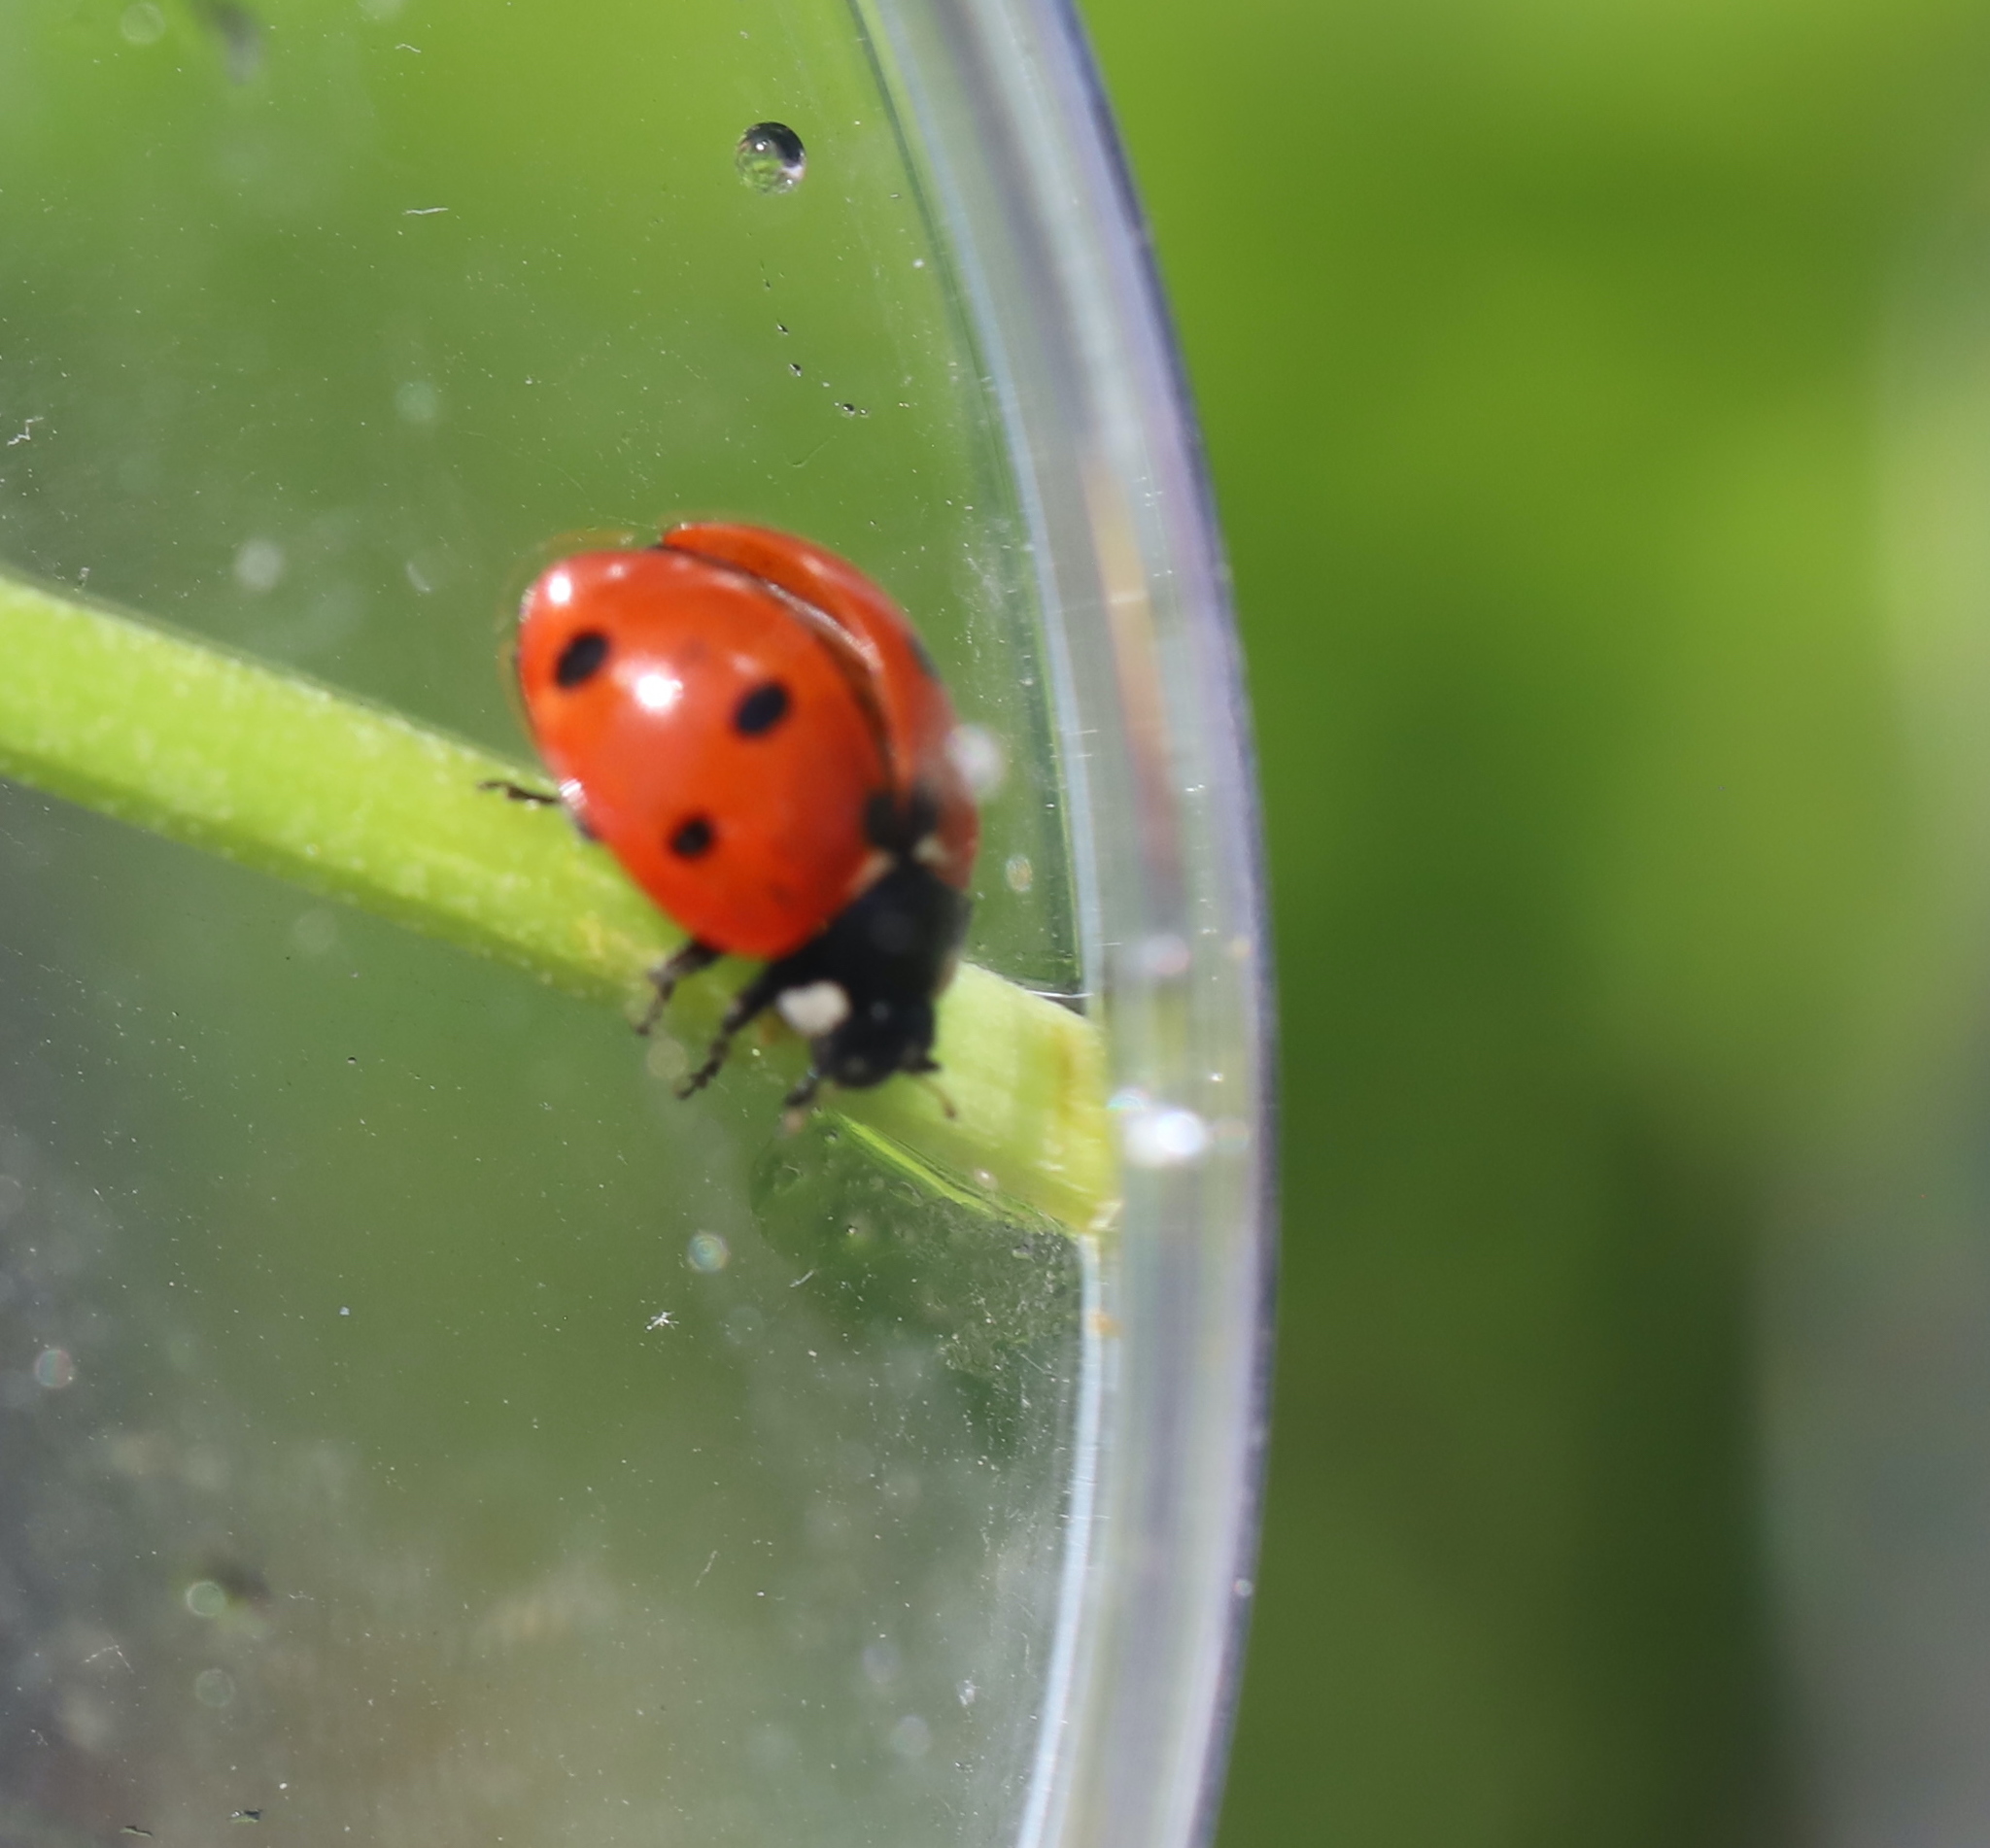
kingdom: Animalia
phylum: Arthropoda
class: Insecta
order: Coleoptera
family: Coccinellidae
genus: Coccinella
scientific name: Coccinella septempunctata
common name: Sevenspotted lady beetle
